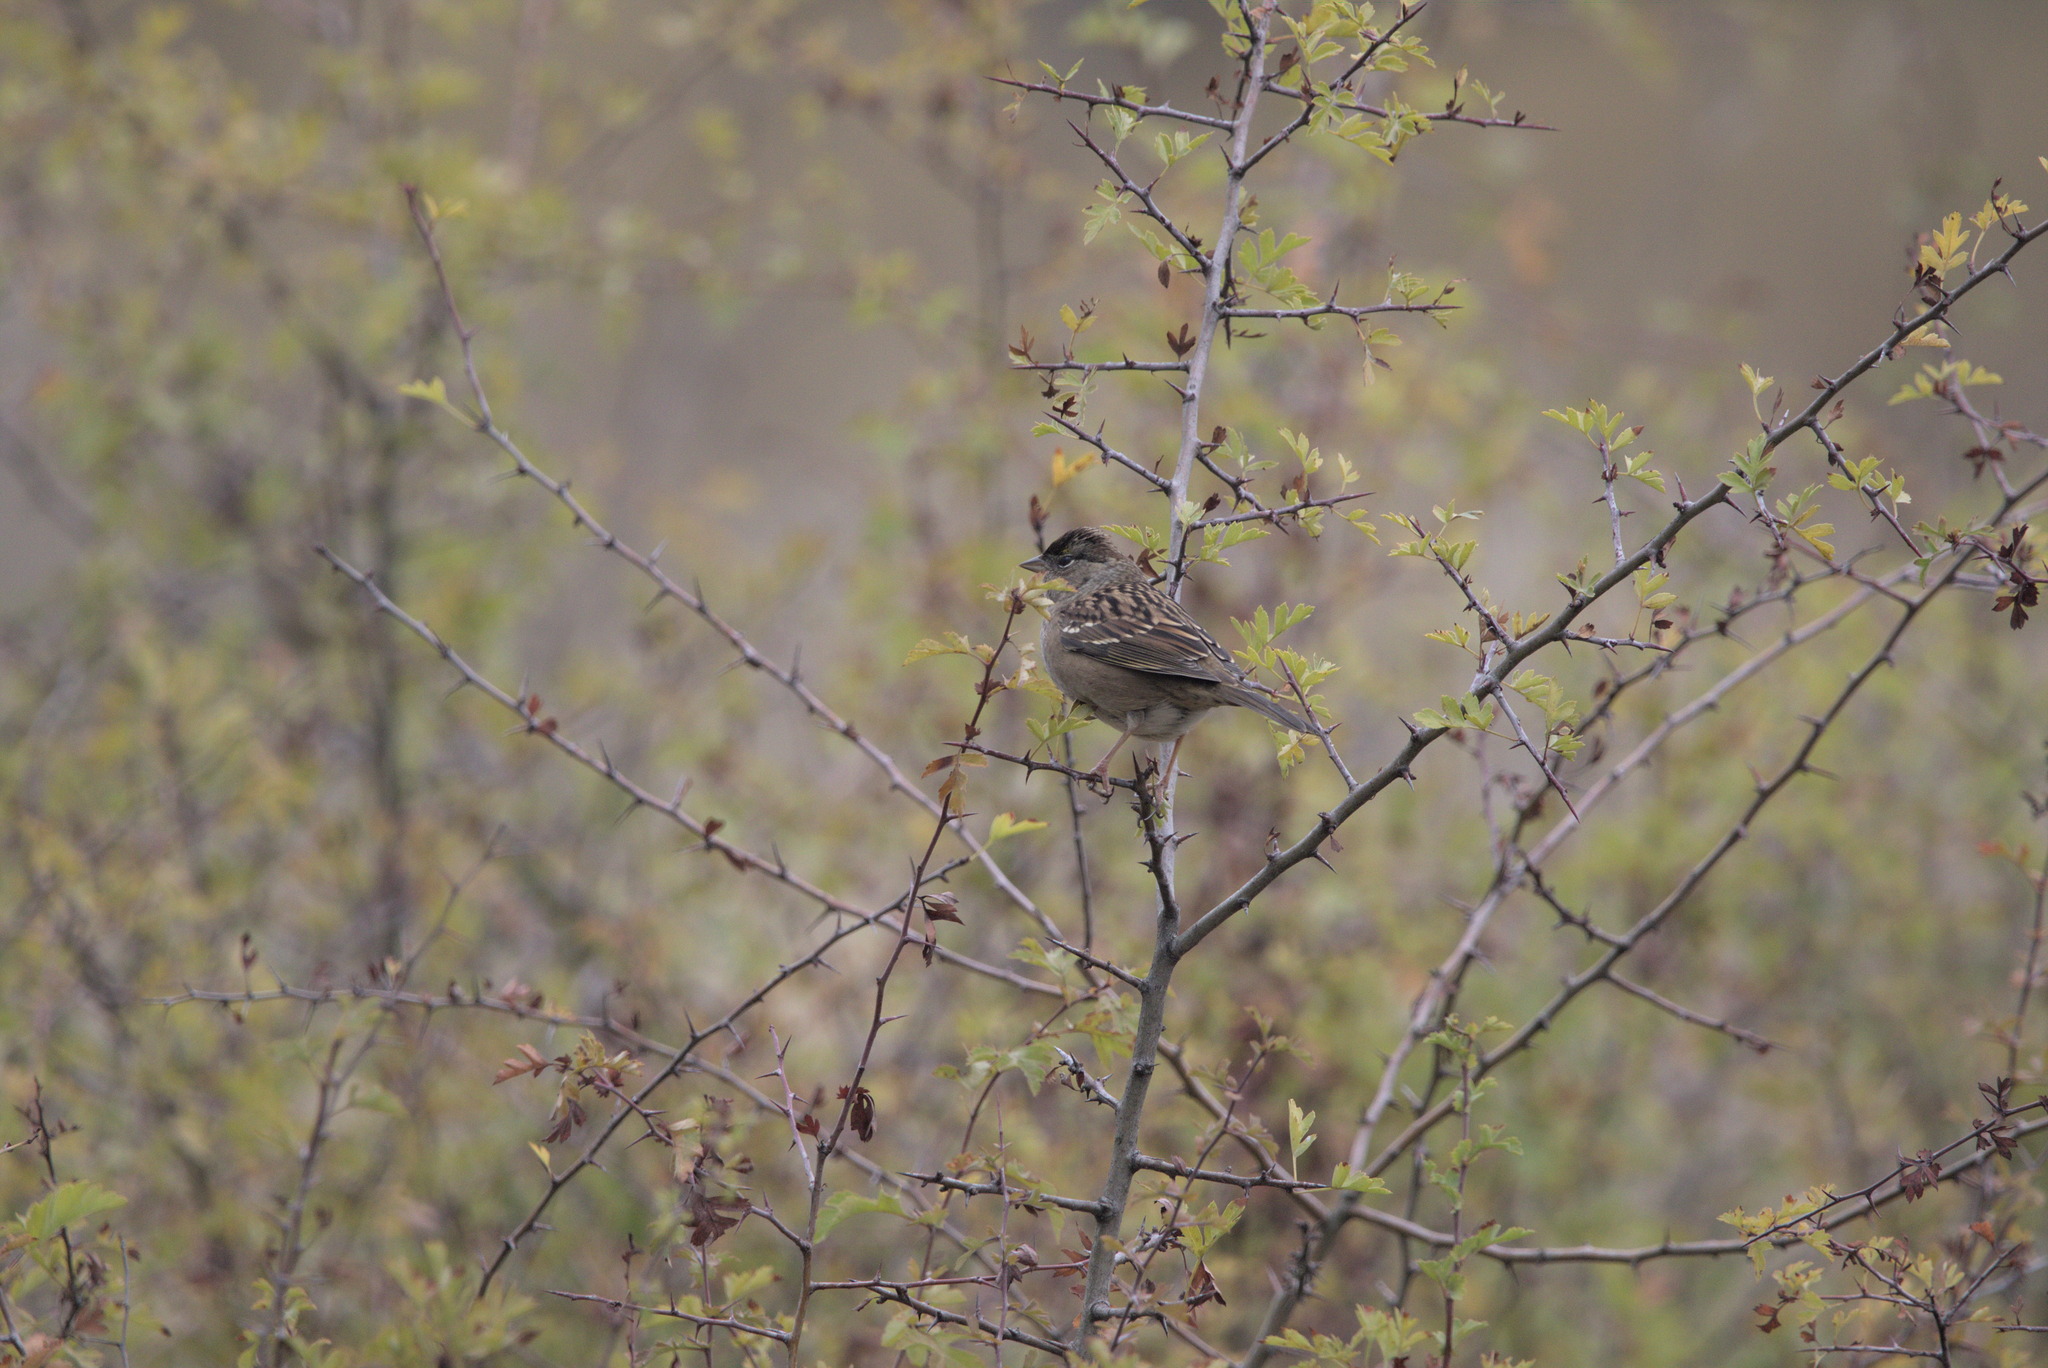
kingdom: Animalia
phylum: Chordata
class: Aves
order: Passeriformes
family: Passerellidae
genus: Zonotrichia
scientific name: Zonotrichia atricapilla
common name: Golden-crowned sparrow
